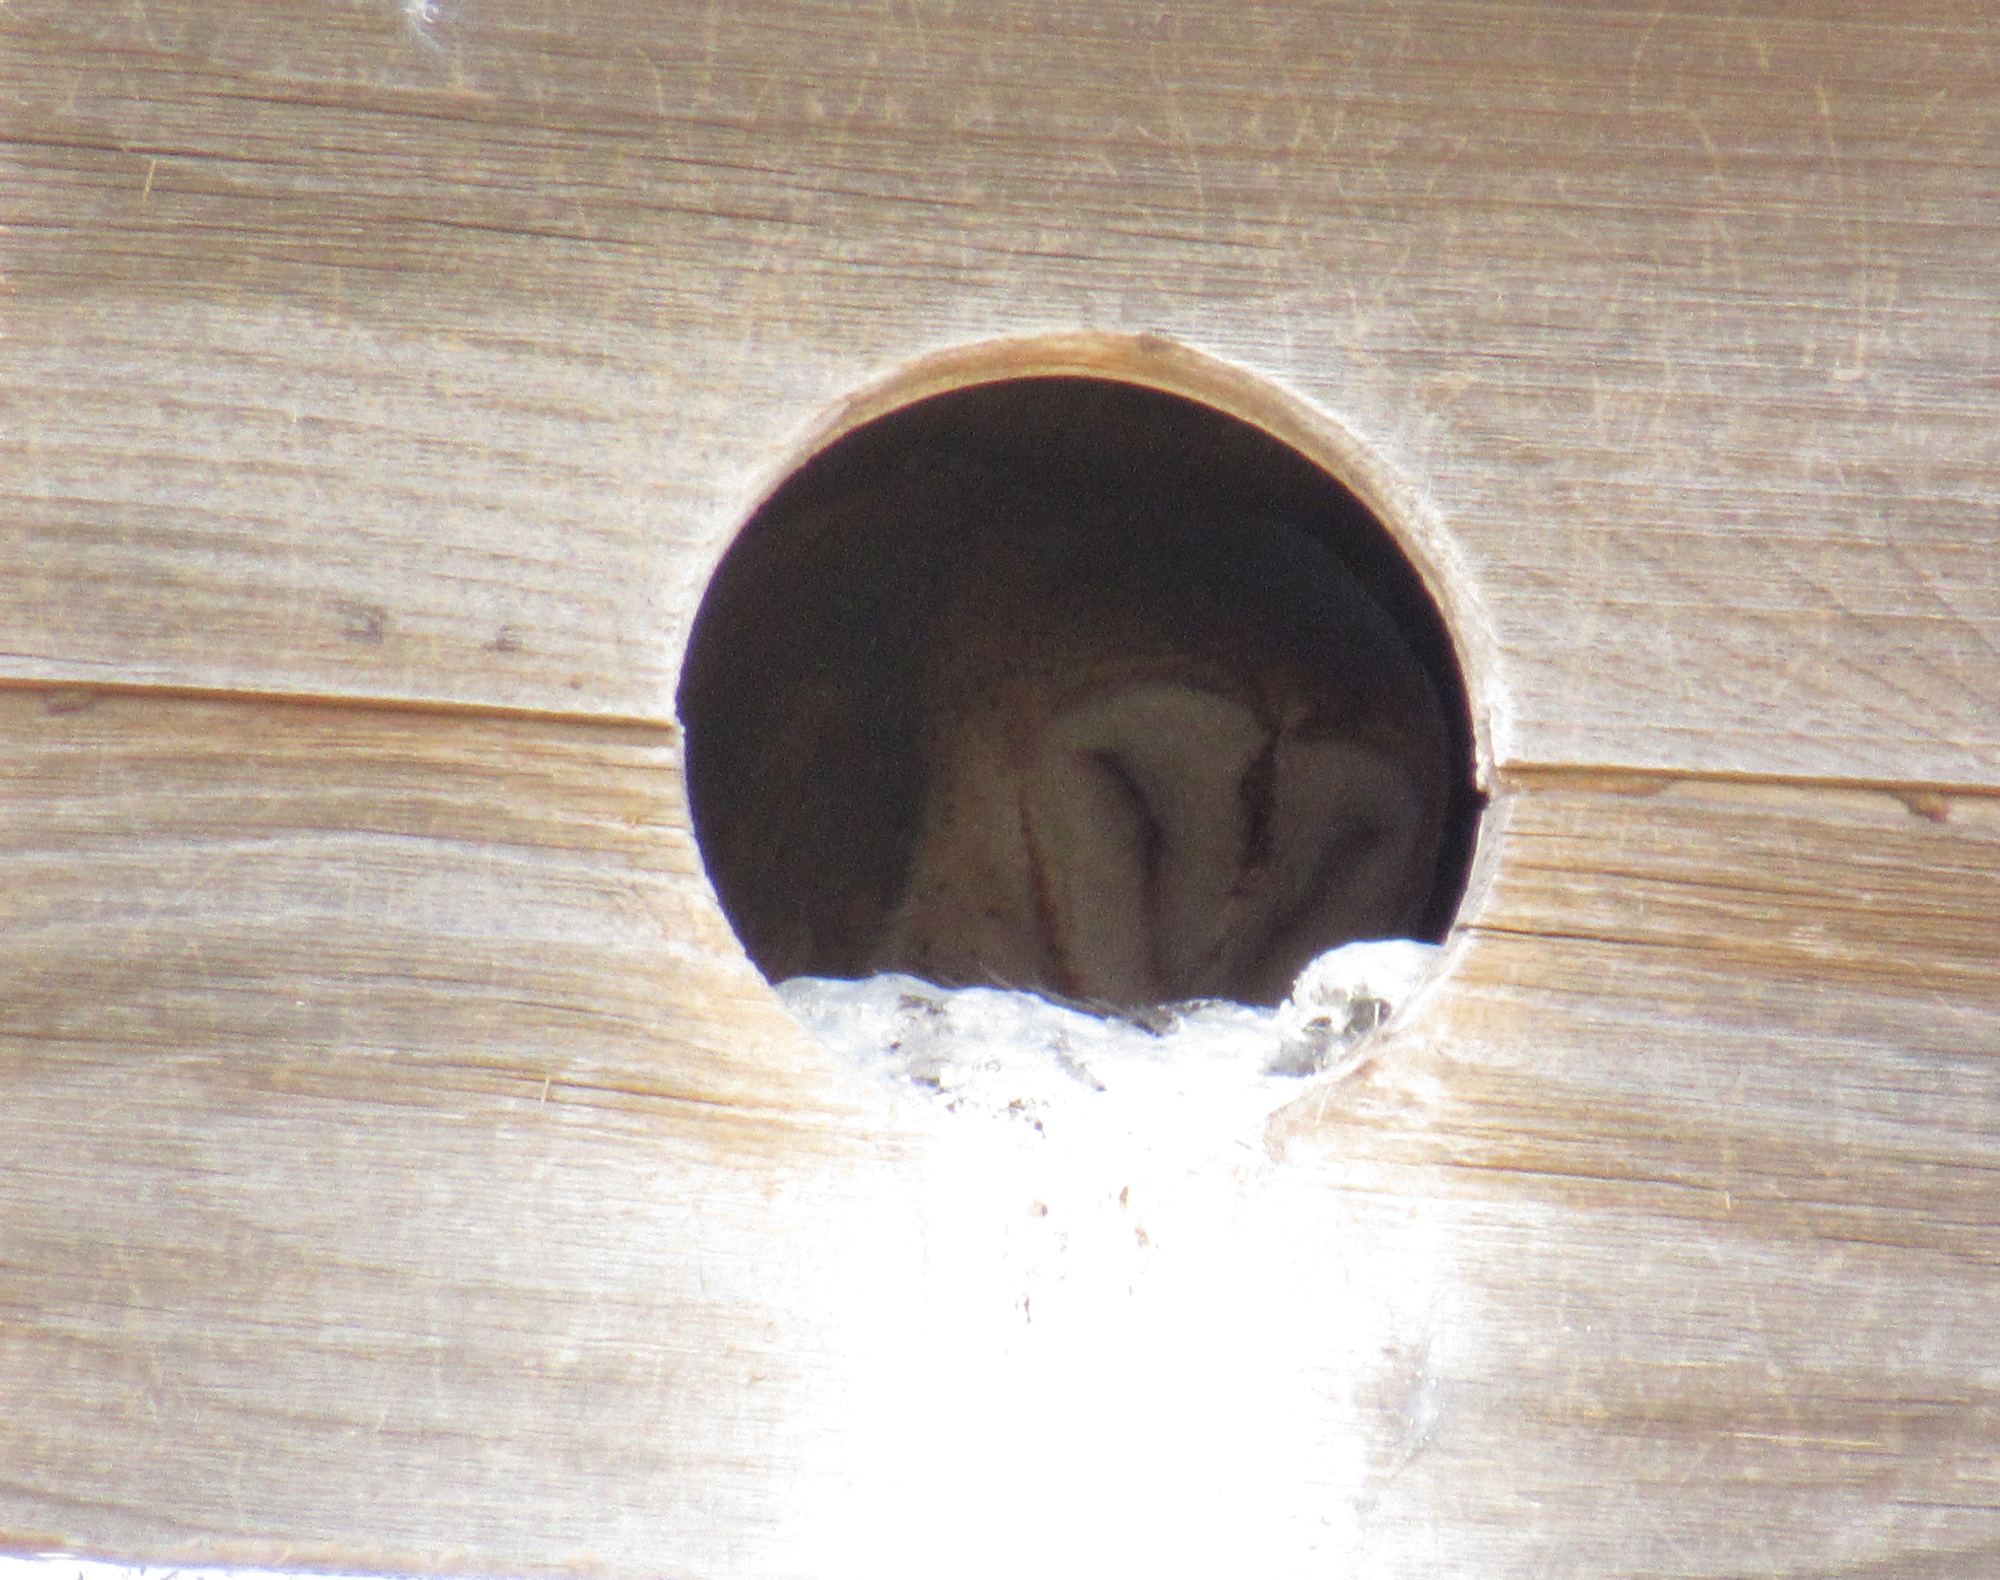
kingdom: Animalia
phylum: Chordata
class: Aves
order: Strigiformes
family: Tytonidae
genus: Tyto
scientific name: Tyto alba
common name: Barn owl
